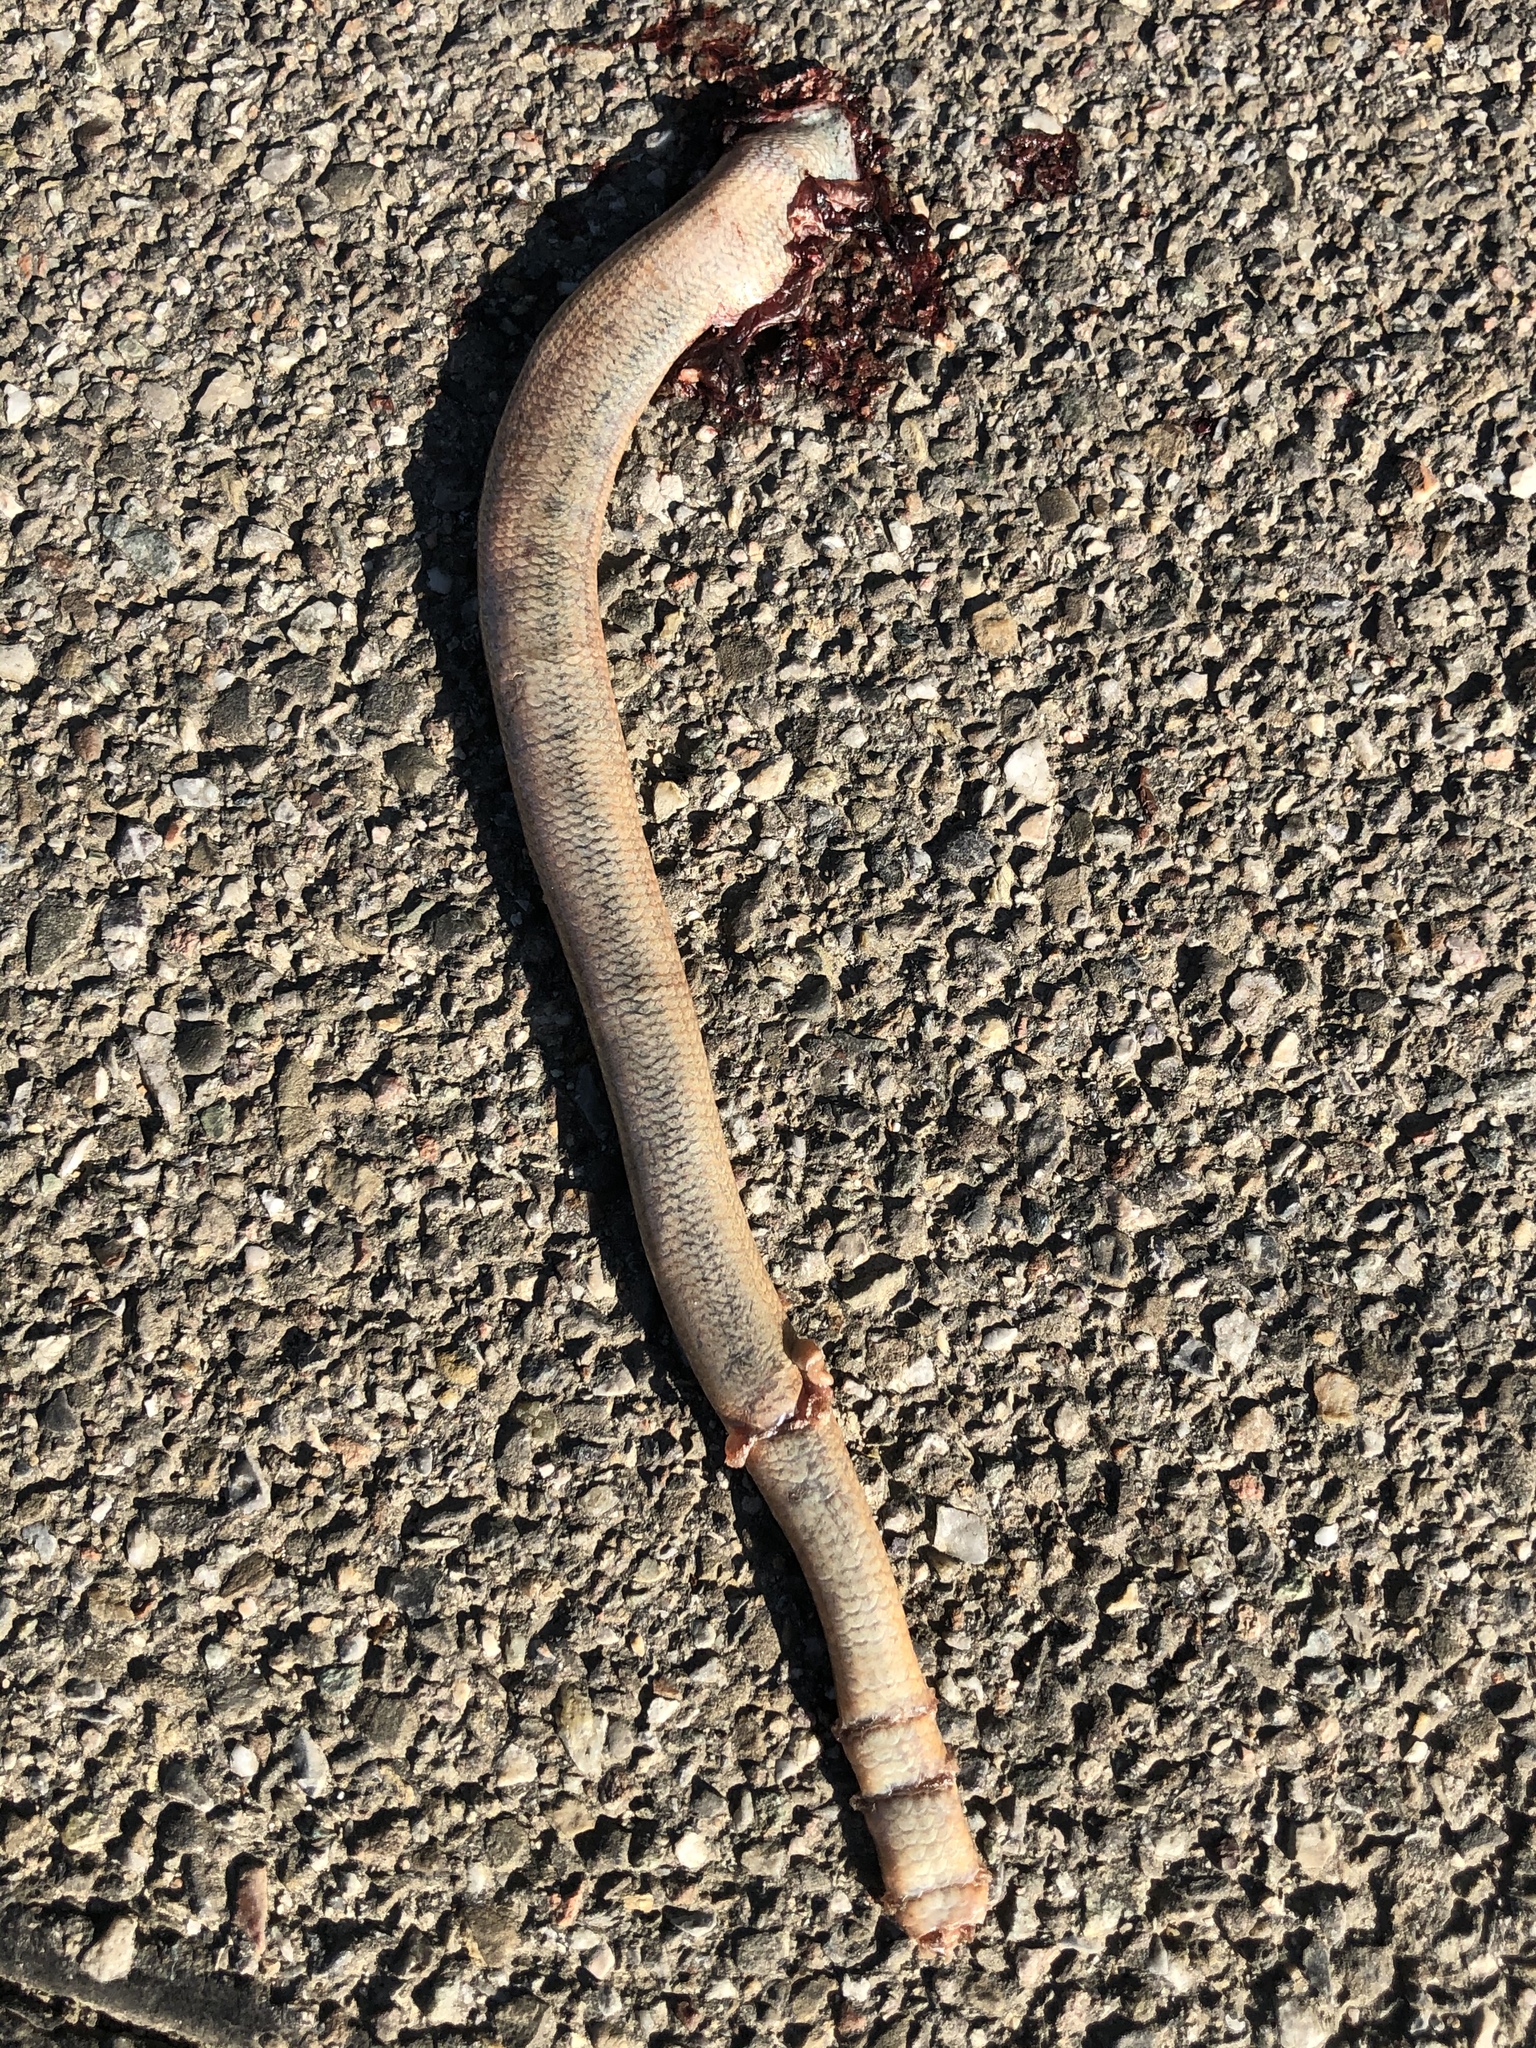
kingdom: Animalia
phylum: Chordata
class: Squamata
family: Anguidae
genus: Anguis
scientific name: Anguis fragilis
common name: Slow worm
